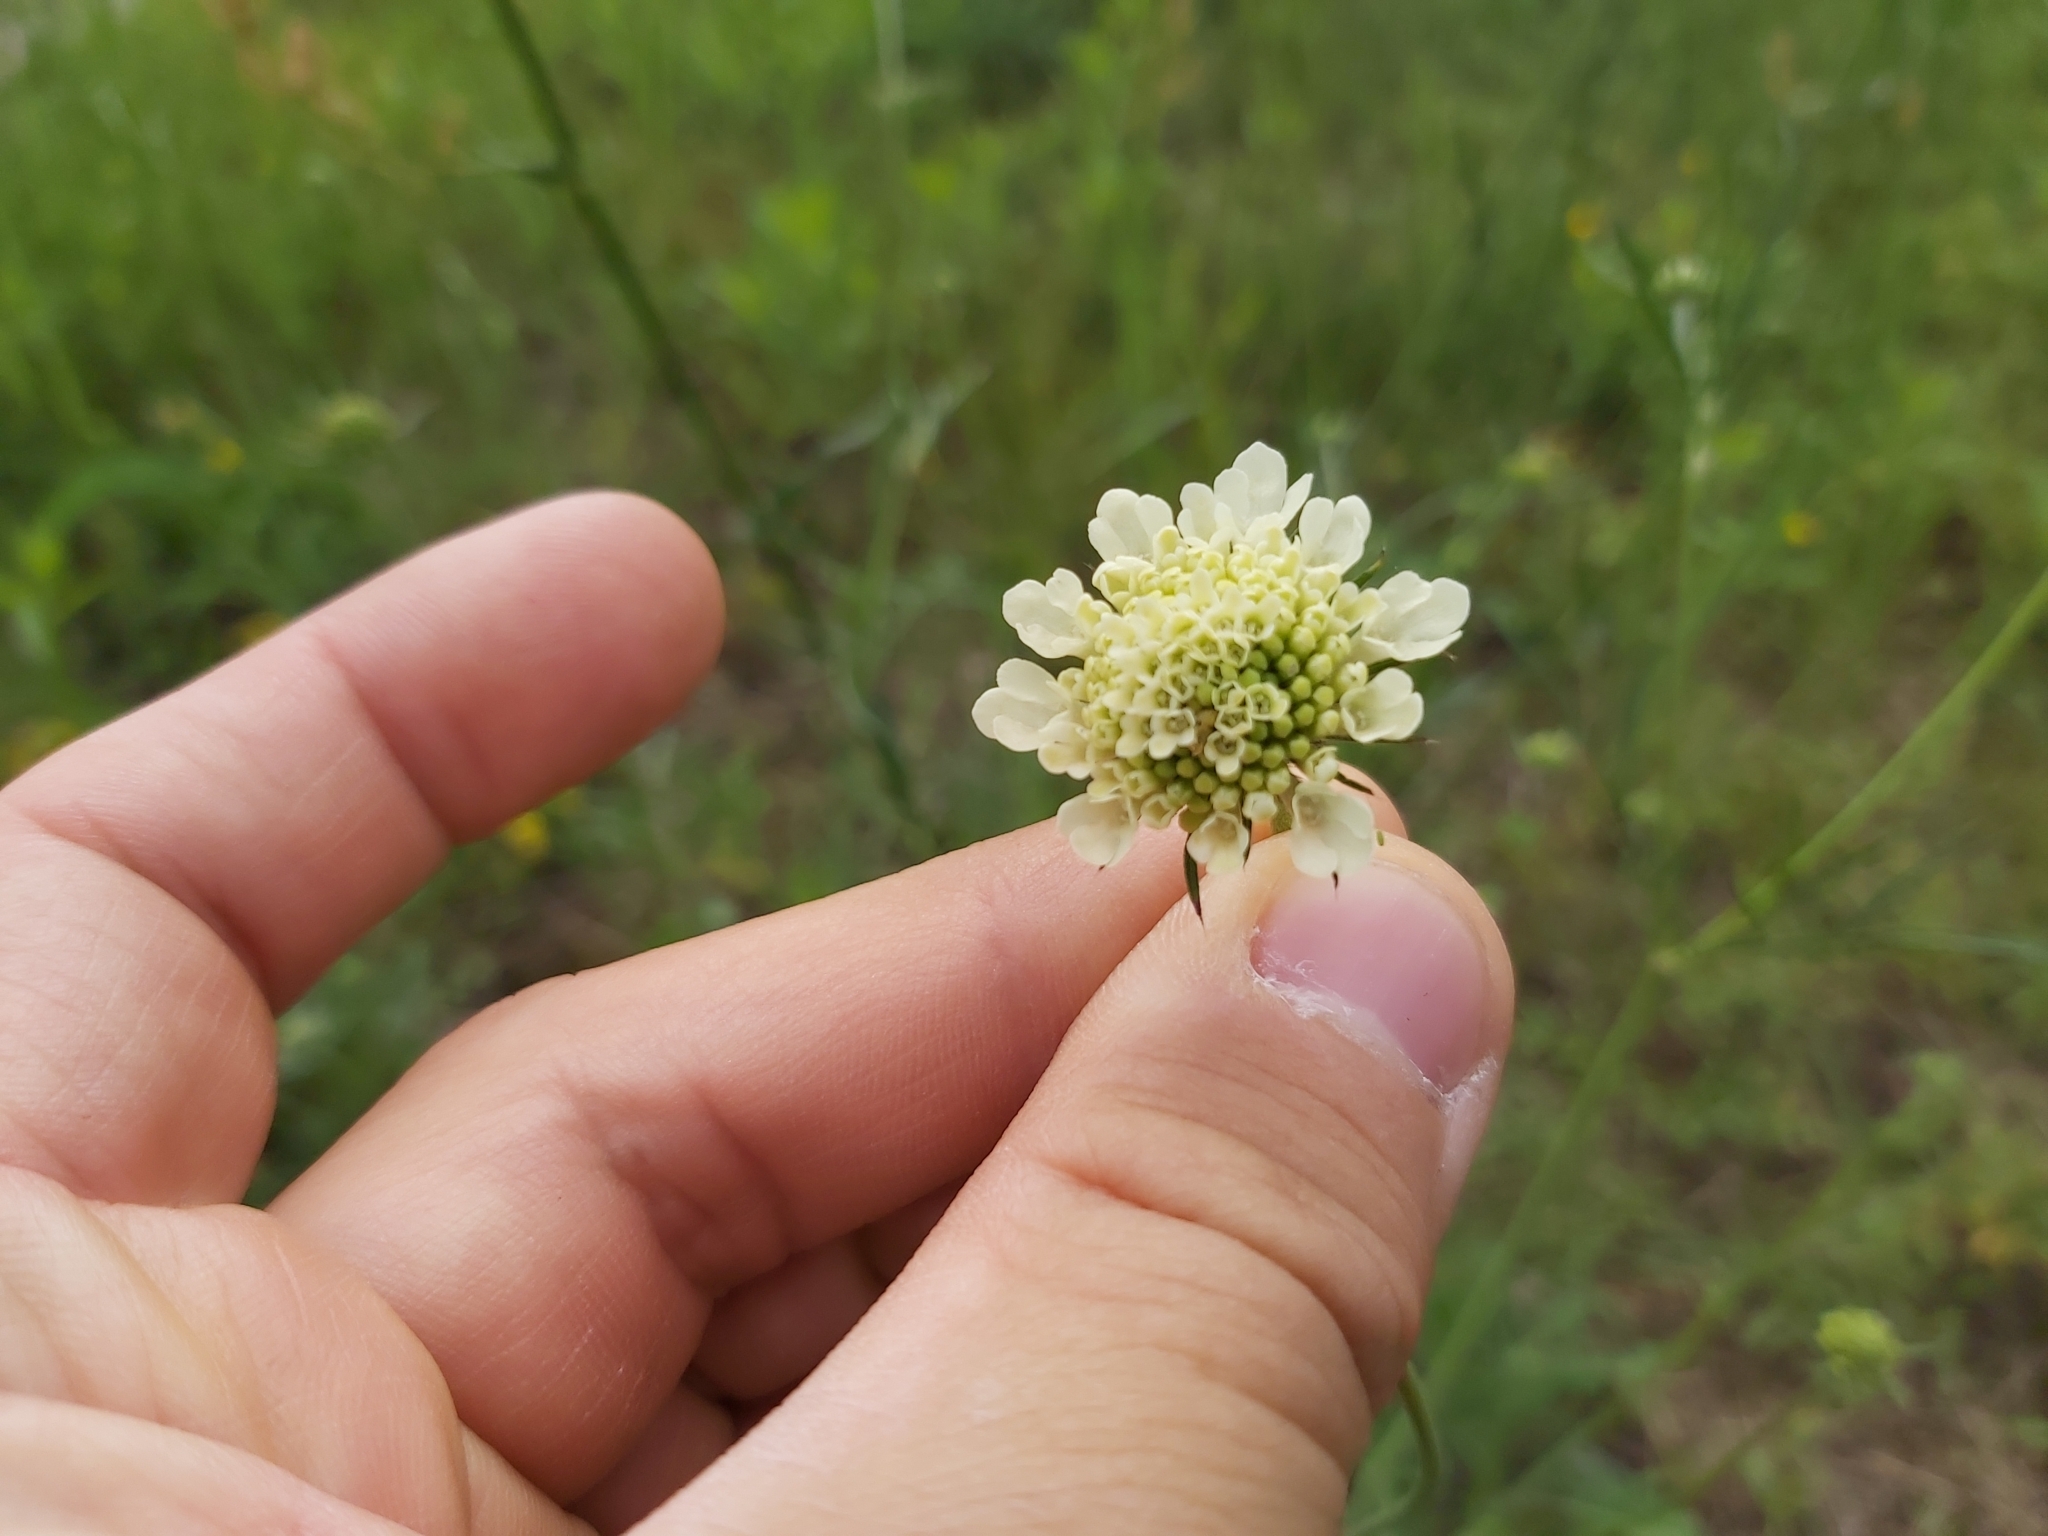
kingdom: Plantae
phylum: Tracheophyta
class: Magnoliopsida
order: Dipsacales
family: Caprifoliaceae
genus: Scabiosa
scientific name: Scabiosa ochroleuca
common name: Cream pincushions
